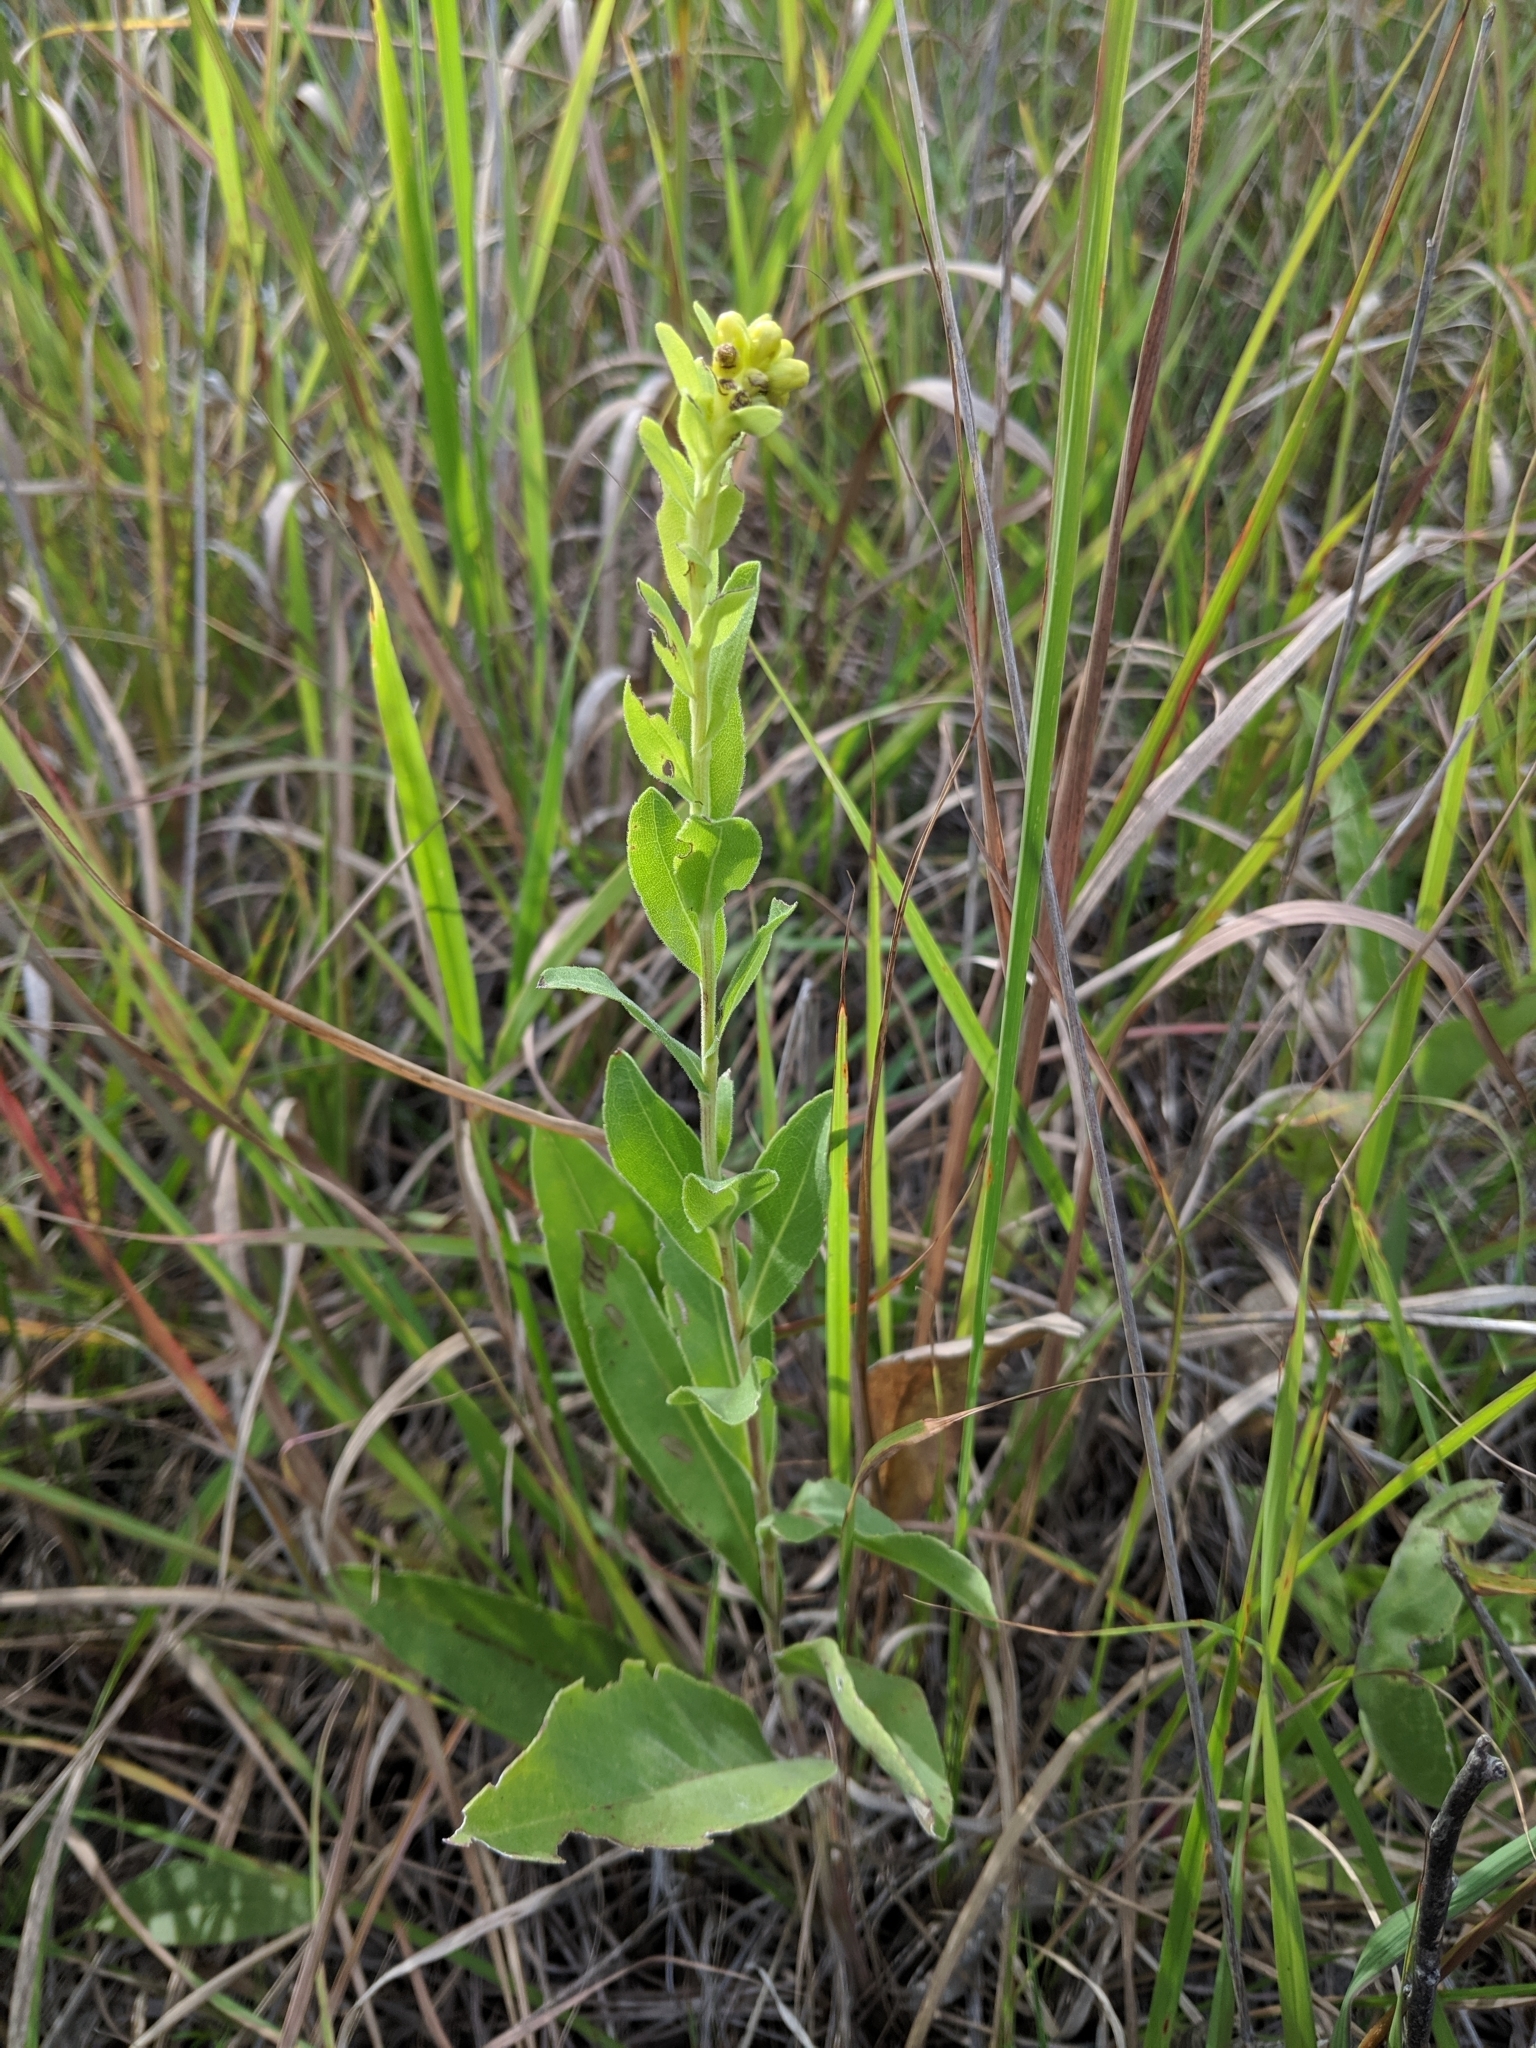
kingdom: Plantae
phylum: Tracheophyta
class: Magnoliopsida
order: Asterales
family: Asteraceae
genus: Solidago
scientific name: Solidago rigida
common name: Rigid goldenrod
